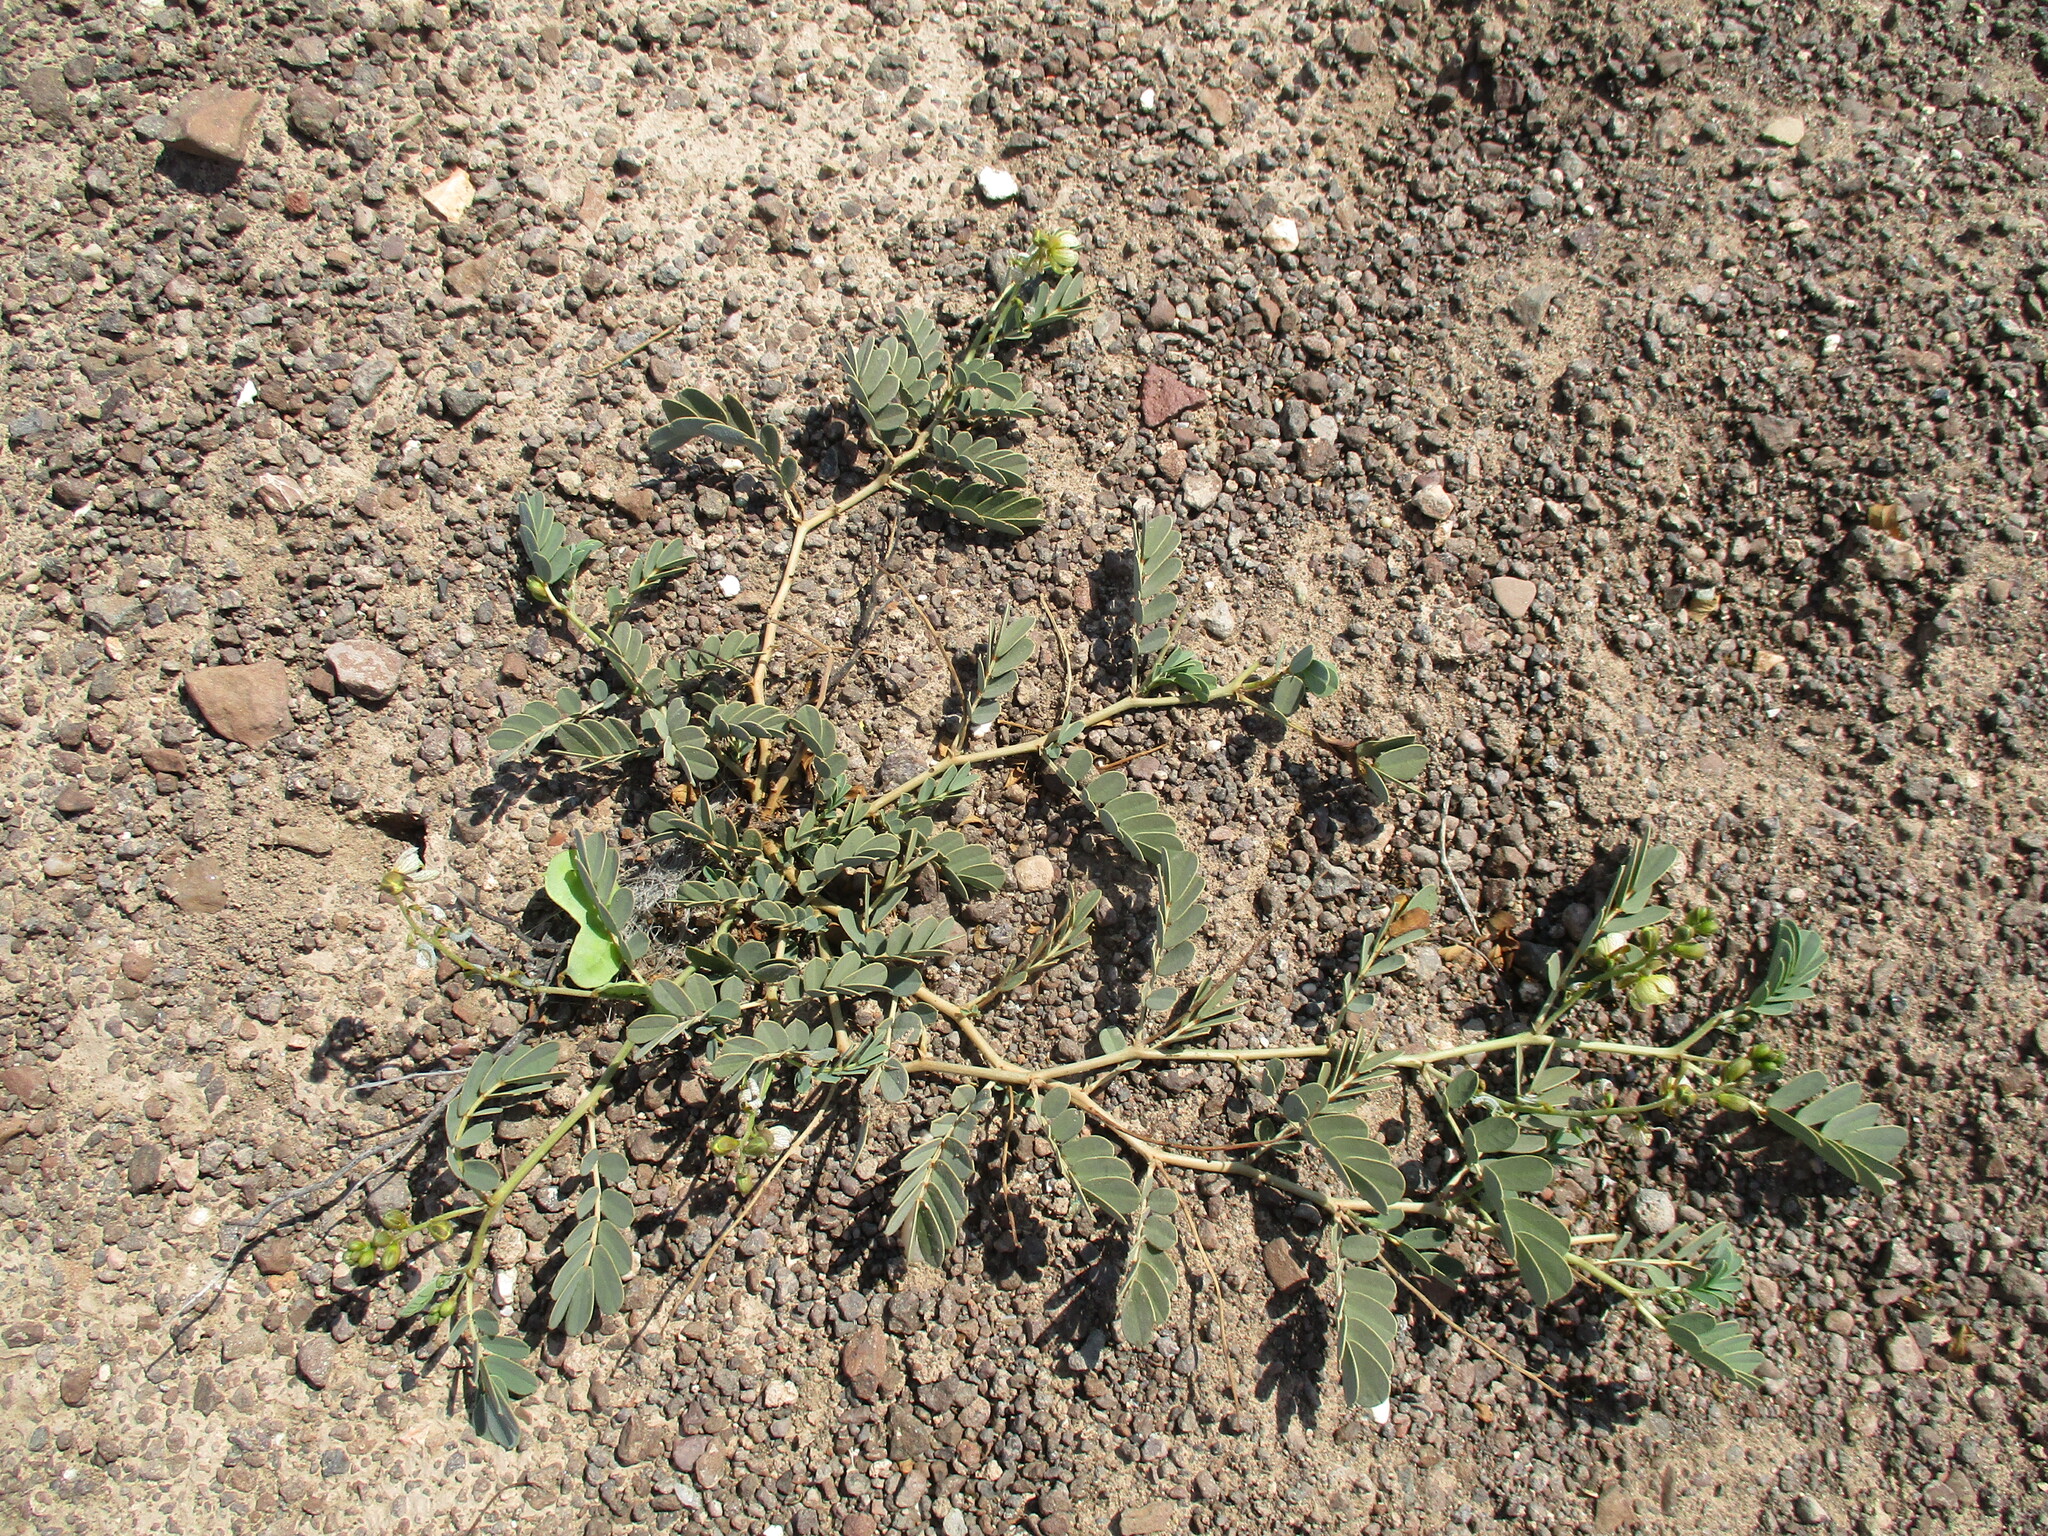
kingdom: Plantae
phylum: Tracheophyta
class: Magnoliopsida
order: Fabales
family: Fabaceae
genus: Senna
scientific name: Senna italica
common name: Port royal senna
